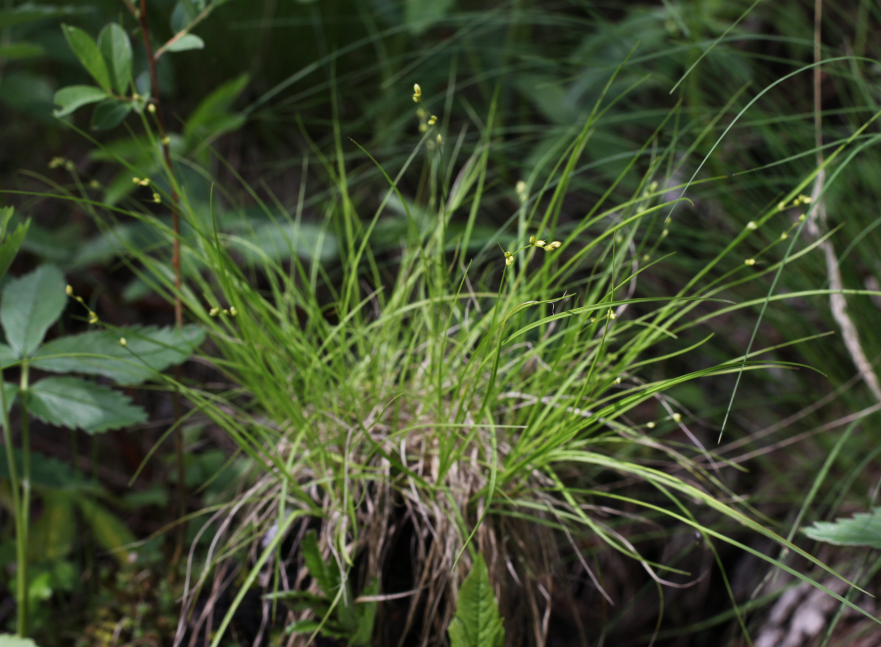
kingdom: Plantae
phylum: Tracheophyta
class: Liliopsida
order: Poales
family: Cyperaceae
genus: Carex
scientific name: Carex disperma
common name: Short-leaved sedge
